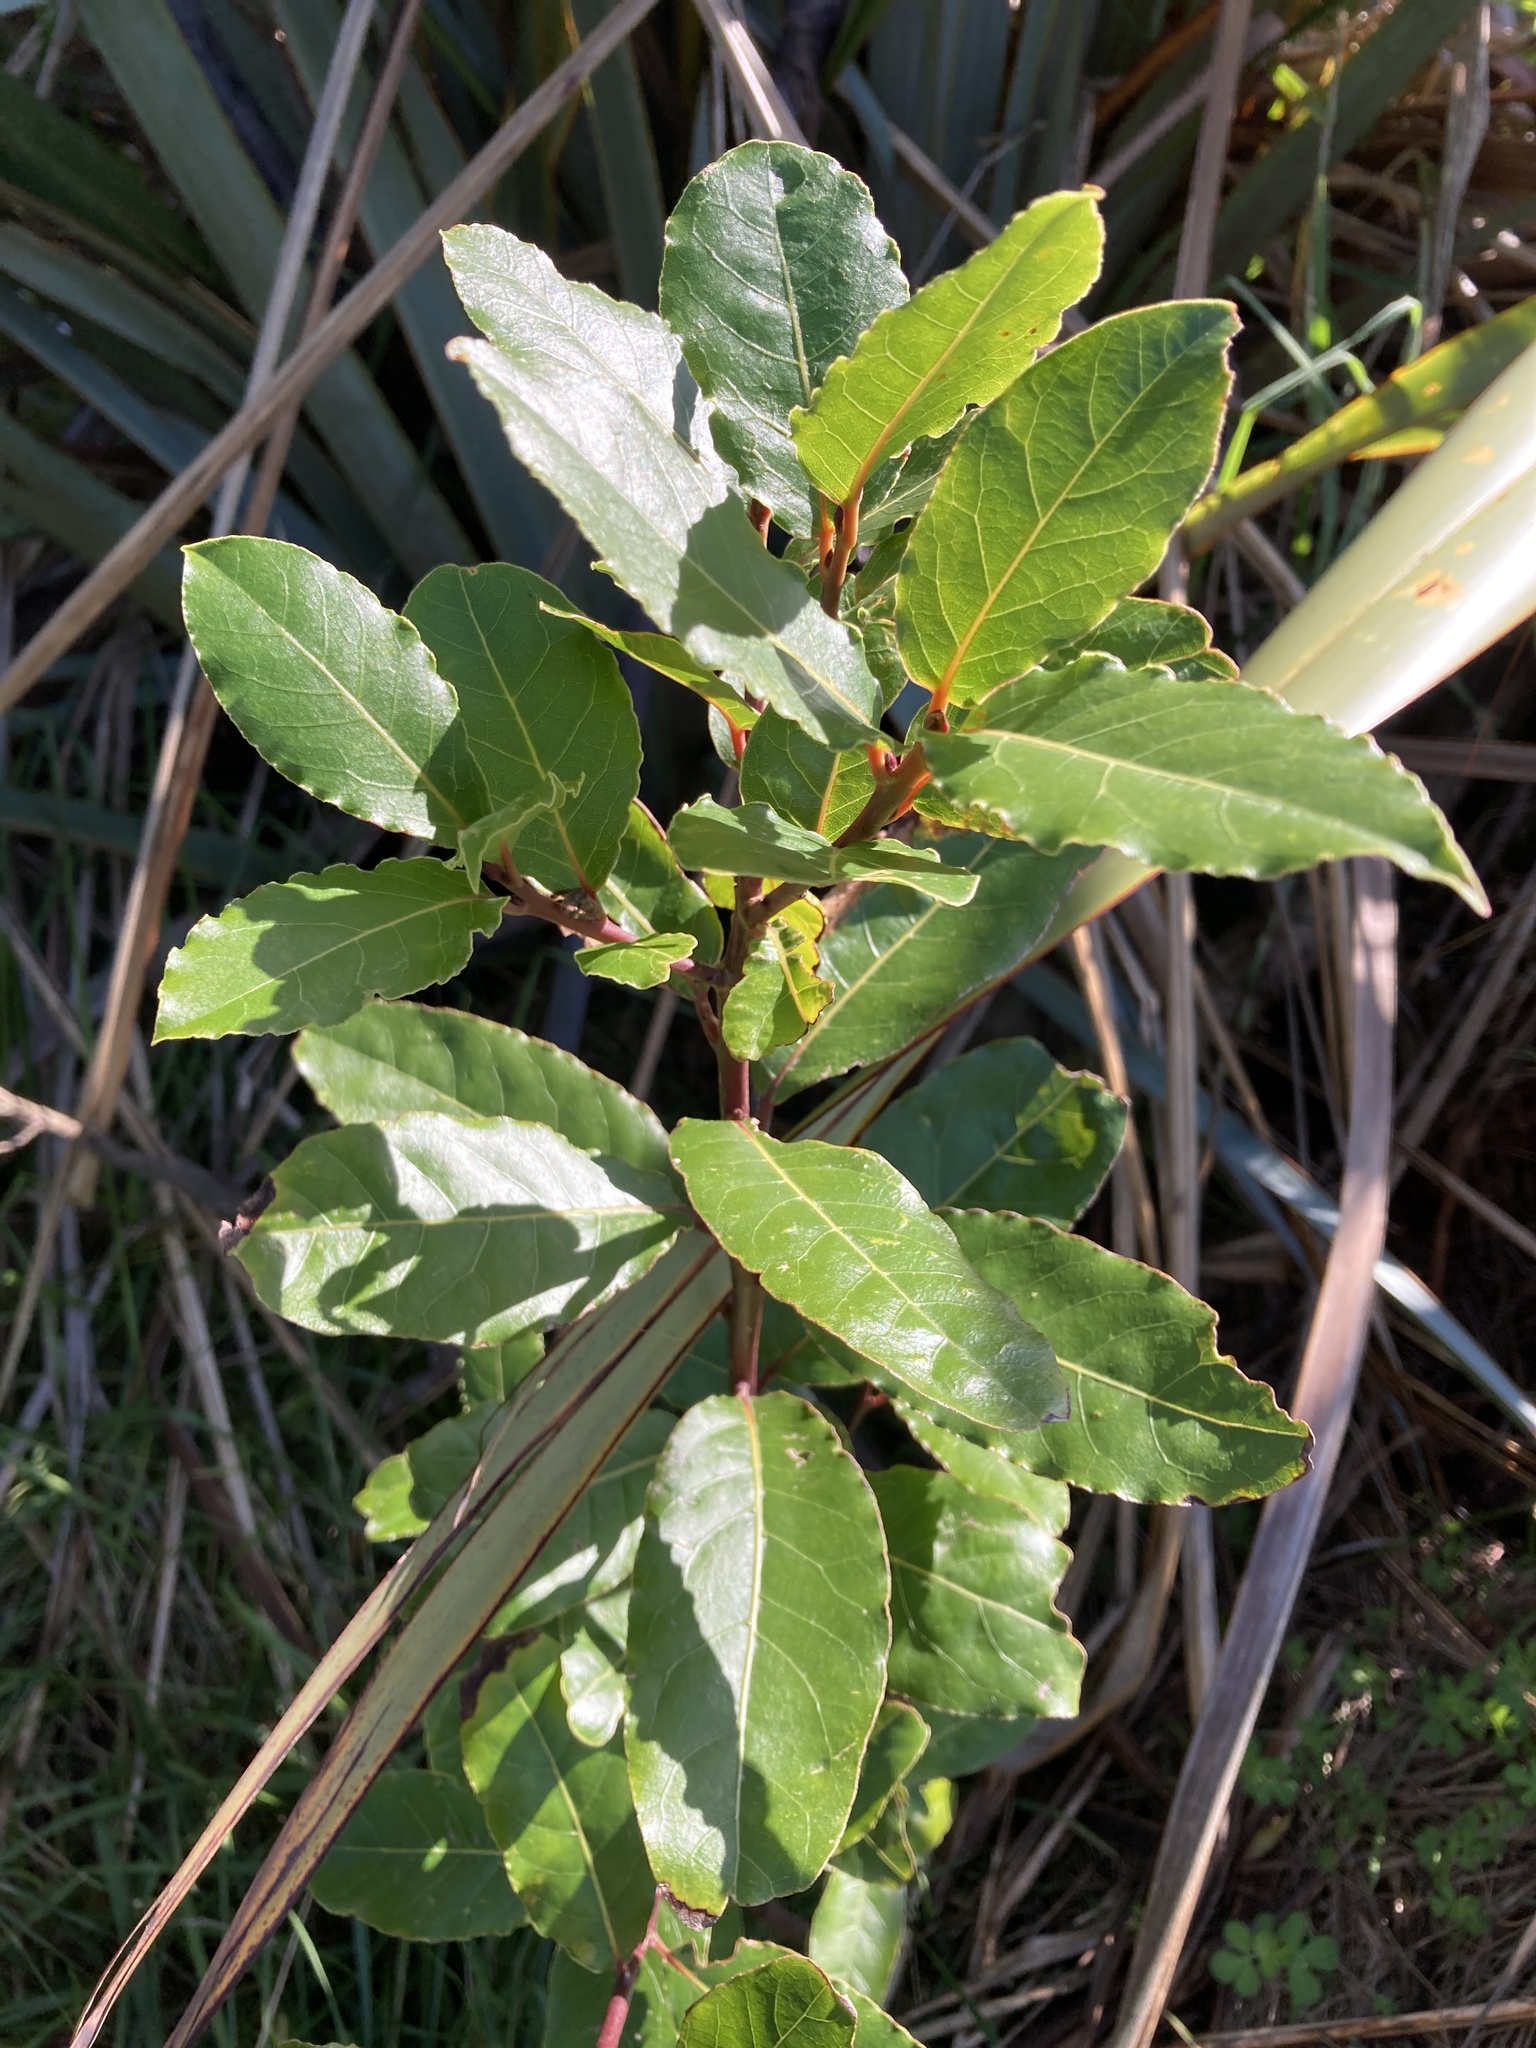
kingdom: Plantae
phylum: Tracheophyta
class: Magnoliopsida
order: Laurales
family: Lauraceae
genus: Laurus
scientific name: Laurus nobilis
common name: Bay
